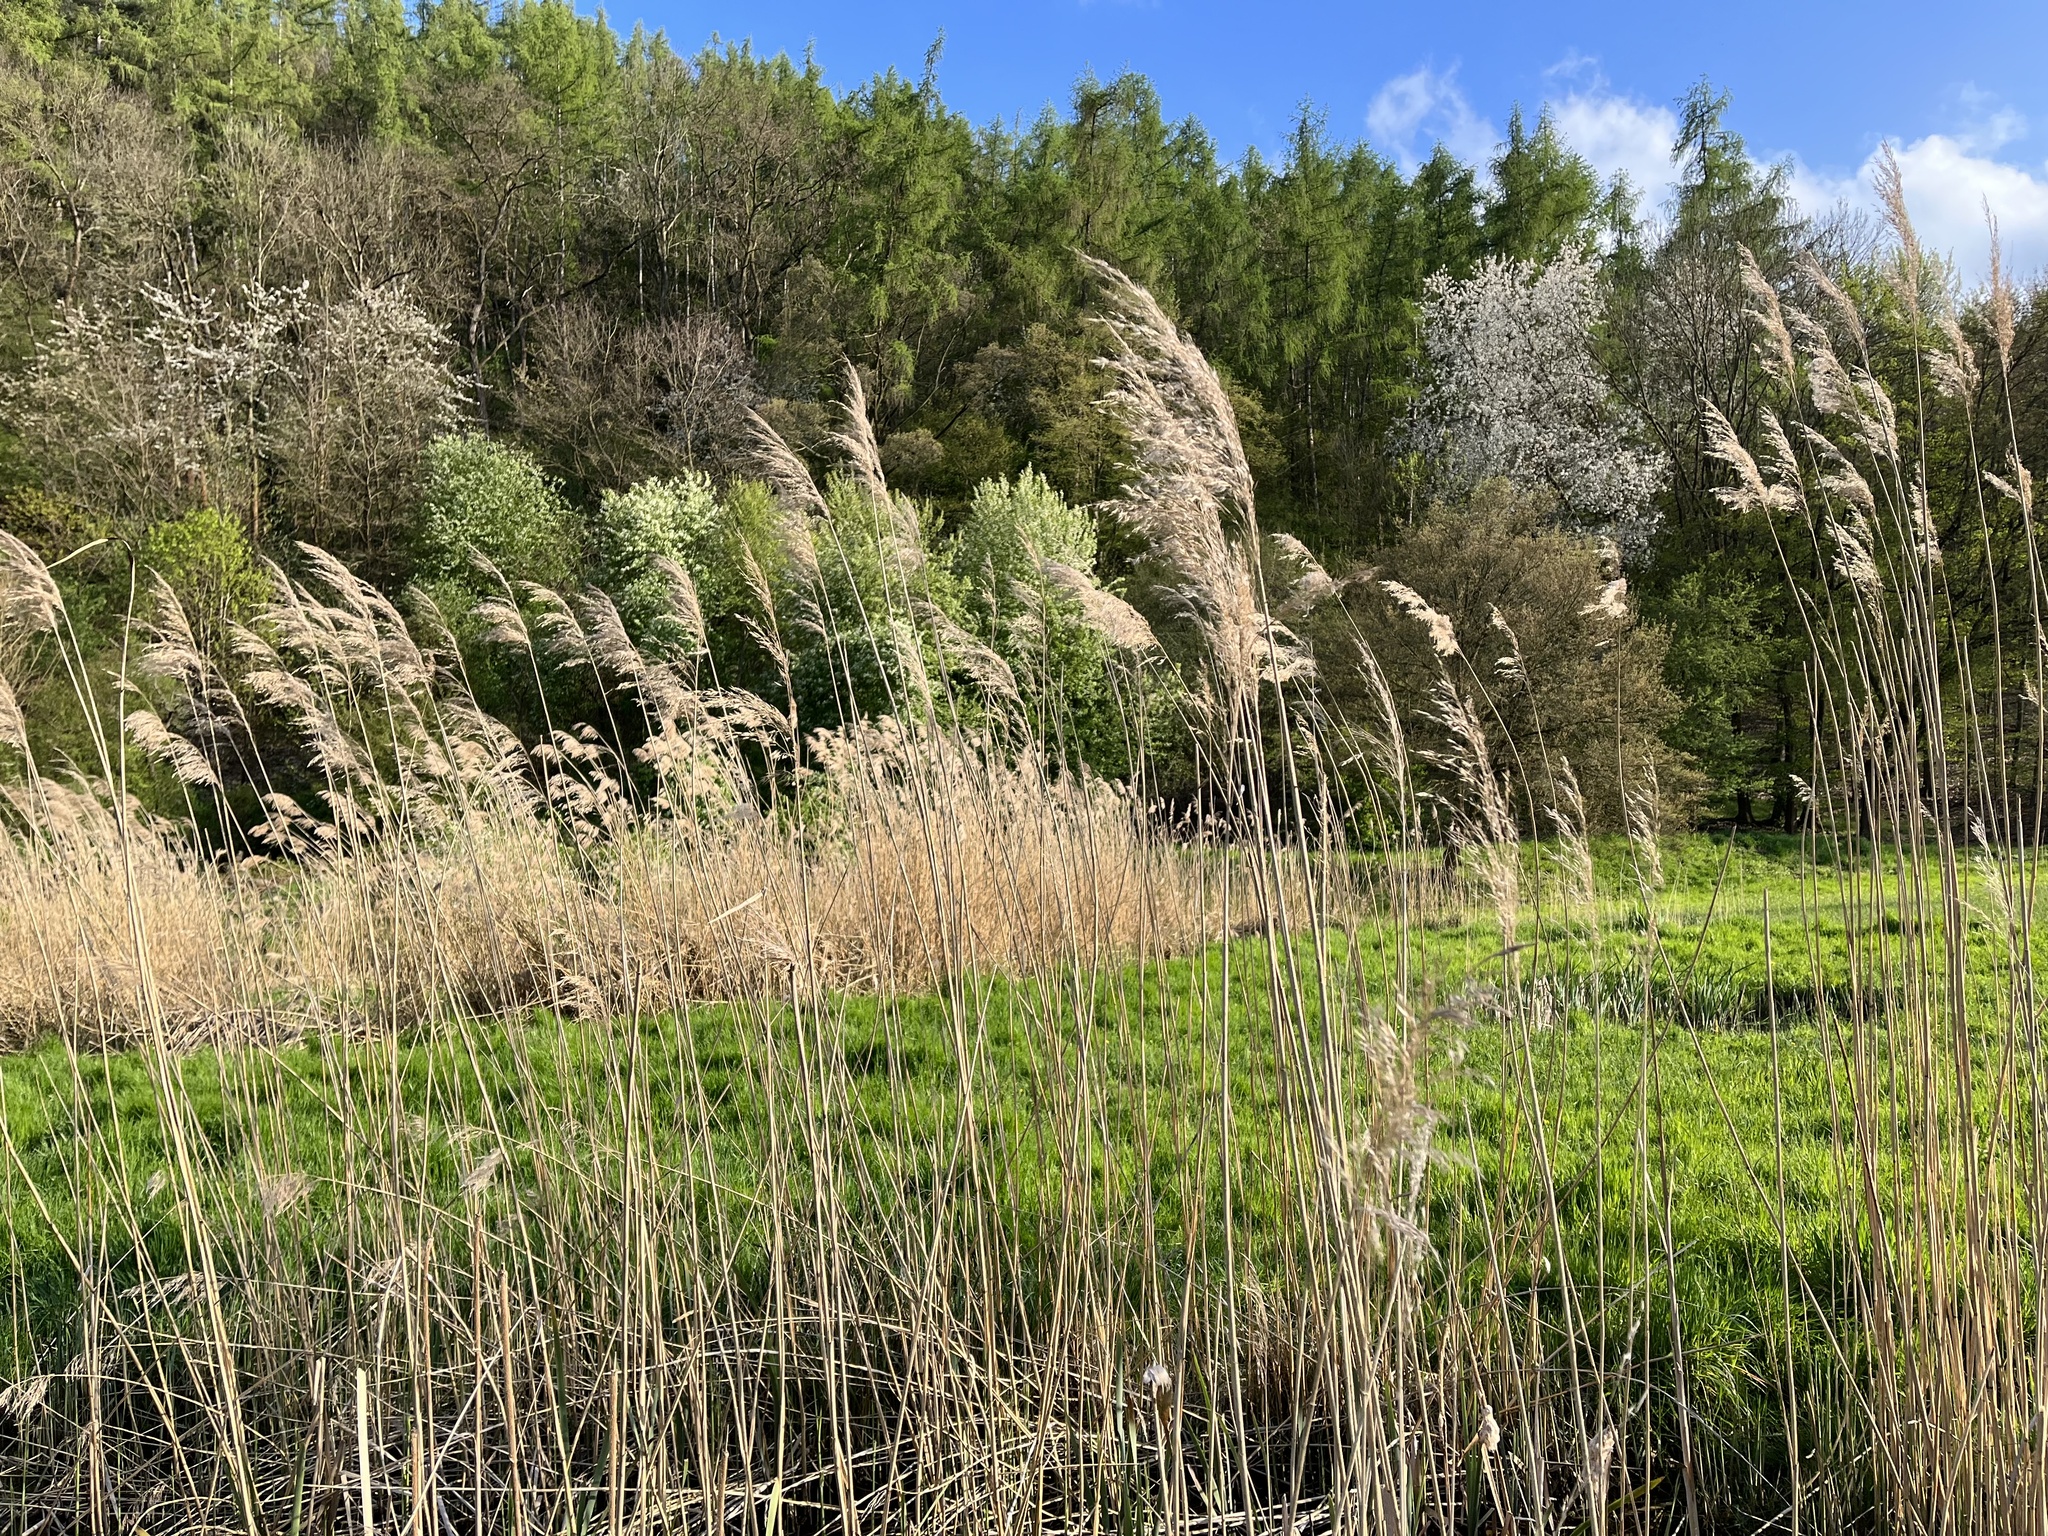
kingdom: Plantae
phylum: Tracheophyta
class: Liliopsida
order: Poales
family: Poaceae
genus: Phragmites
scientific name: Phragmites australis
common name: Common reed
